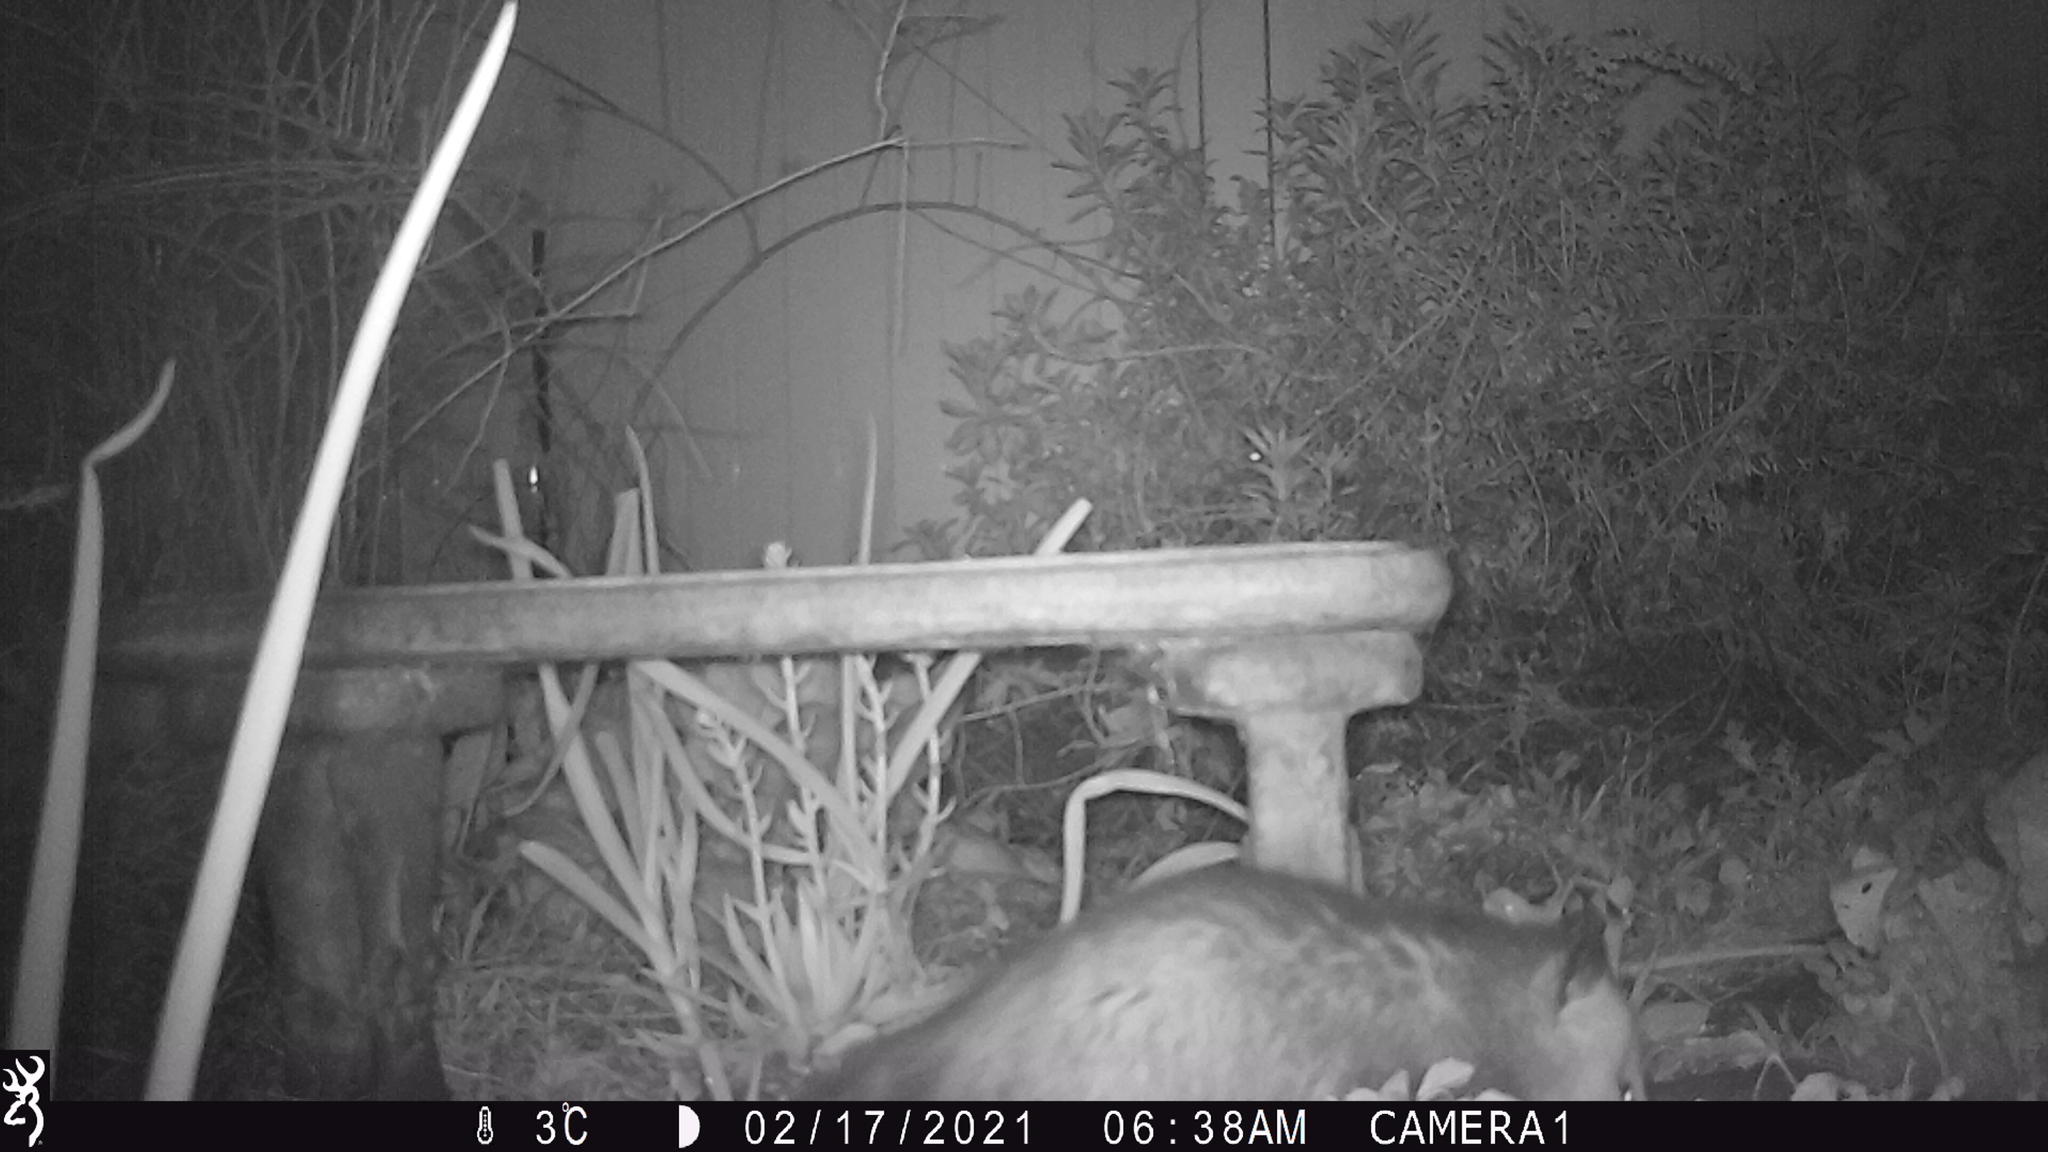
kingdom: Animalia
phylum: Chordata
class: Mammalia
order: Didelphimorphia
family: Didelphidae
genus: Didelphis
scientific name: Didelphis virginiana
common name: Virginia opossum
